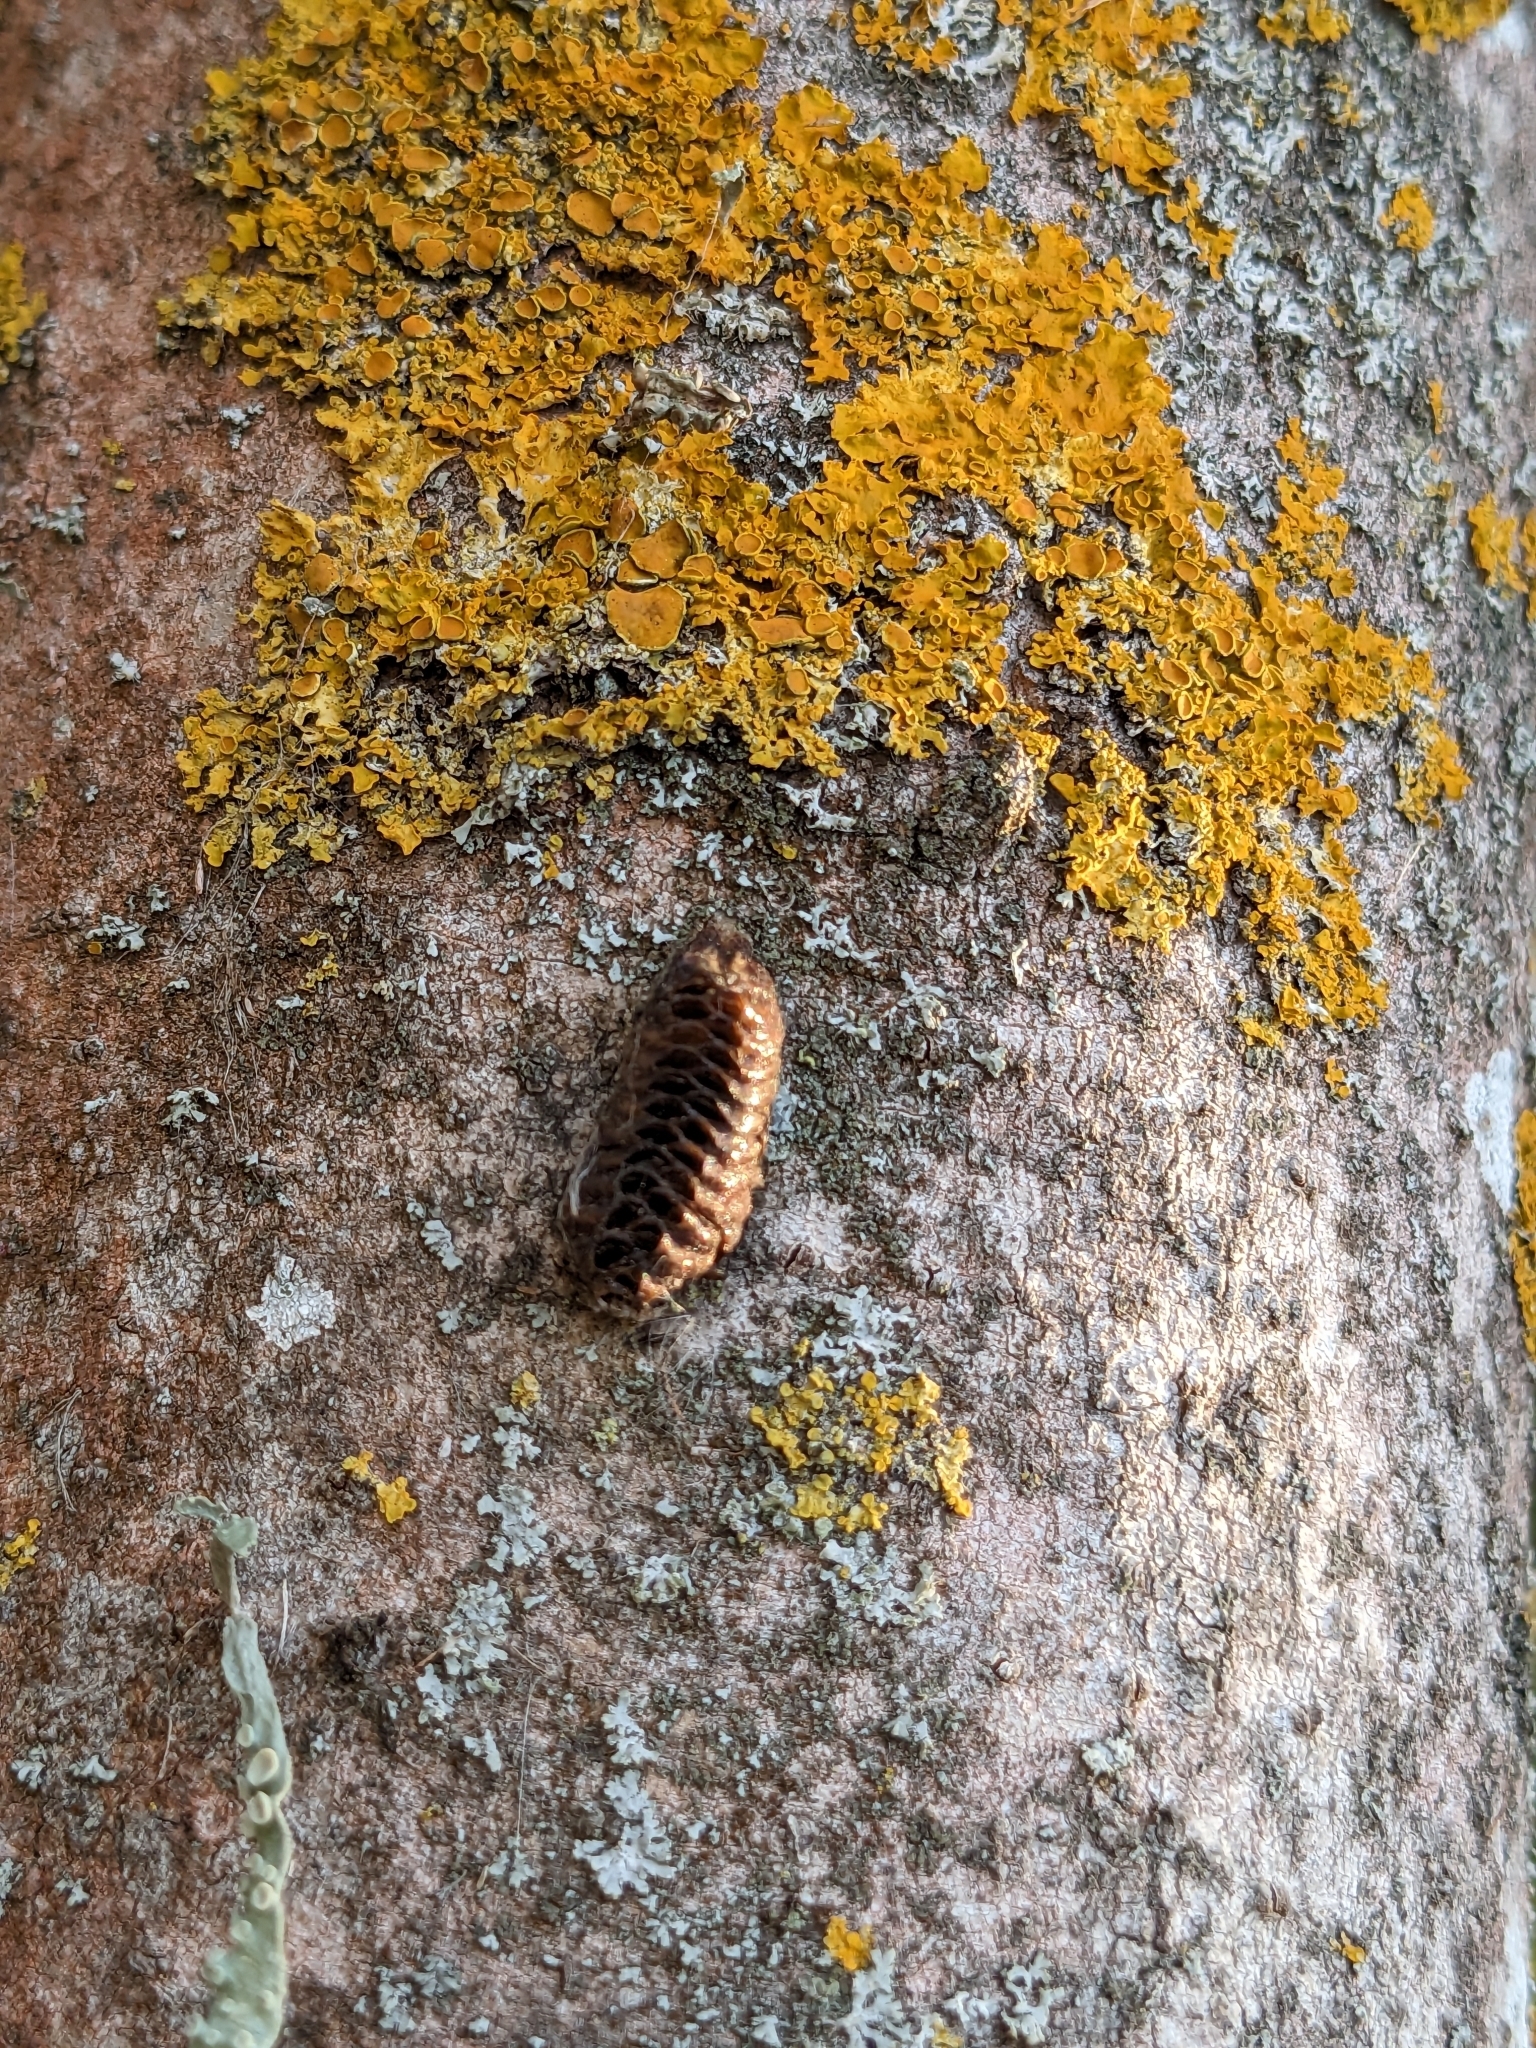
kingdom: Animalia
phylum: Arthropoda
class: Insecta
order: Mantodea
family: Mantidae
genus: Orthodera
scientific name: Orthodera novaezealandiae
